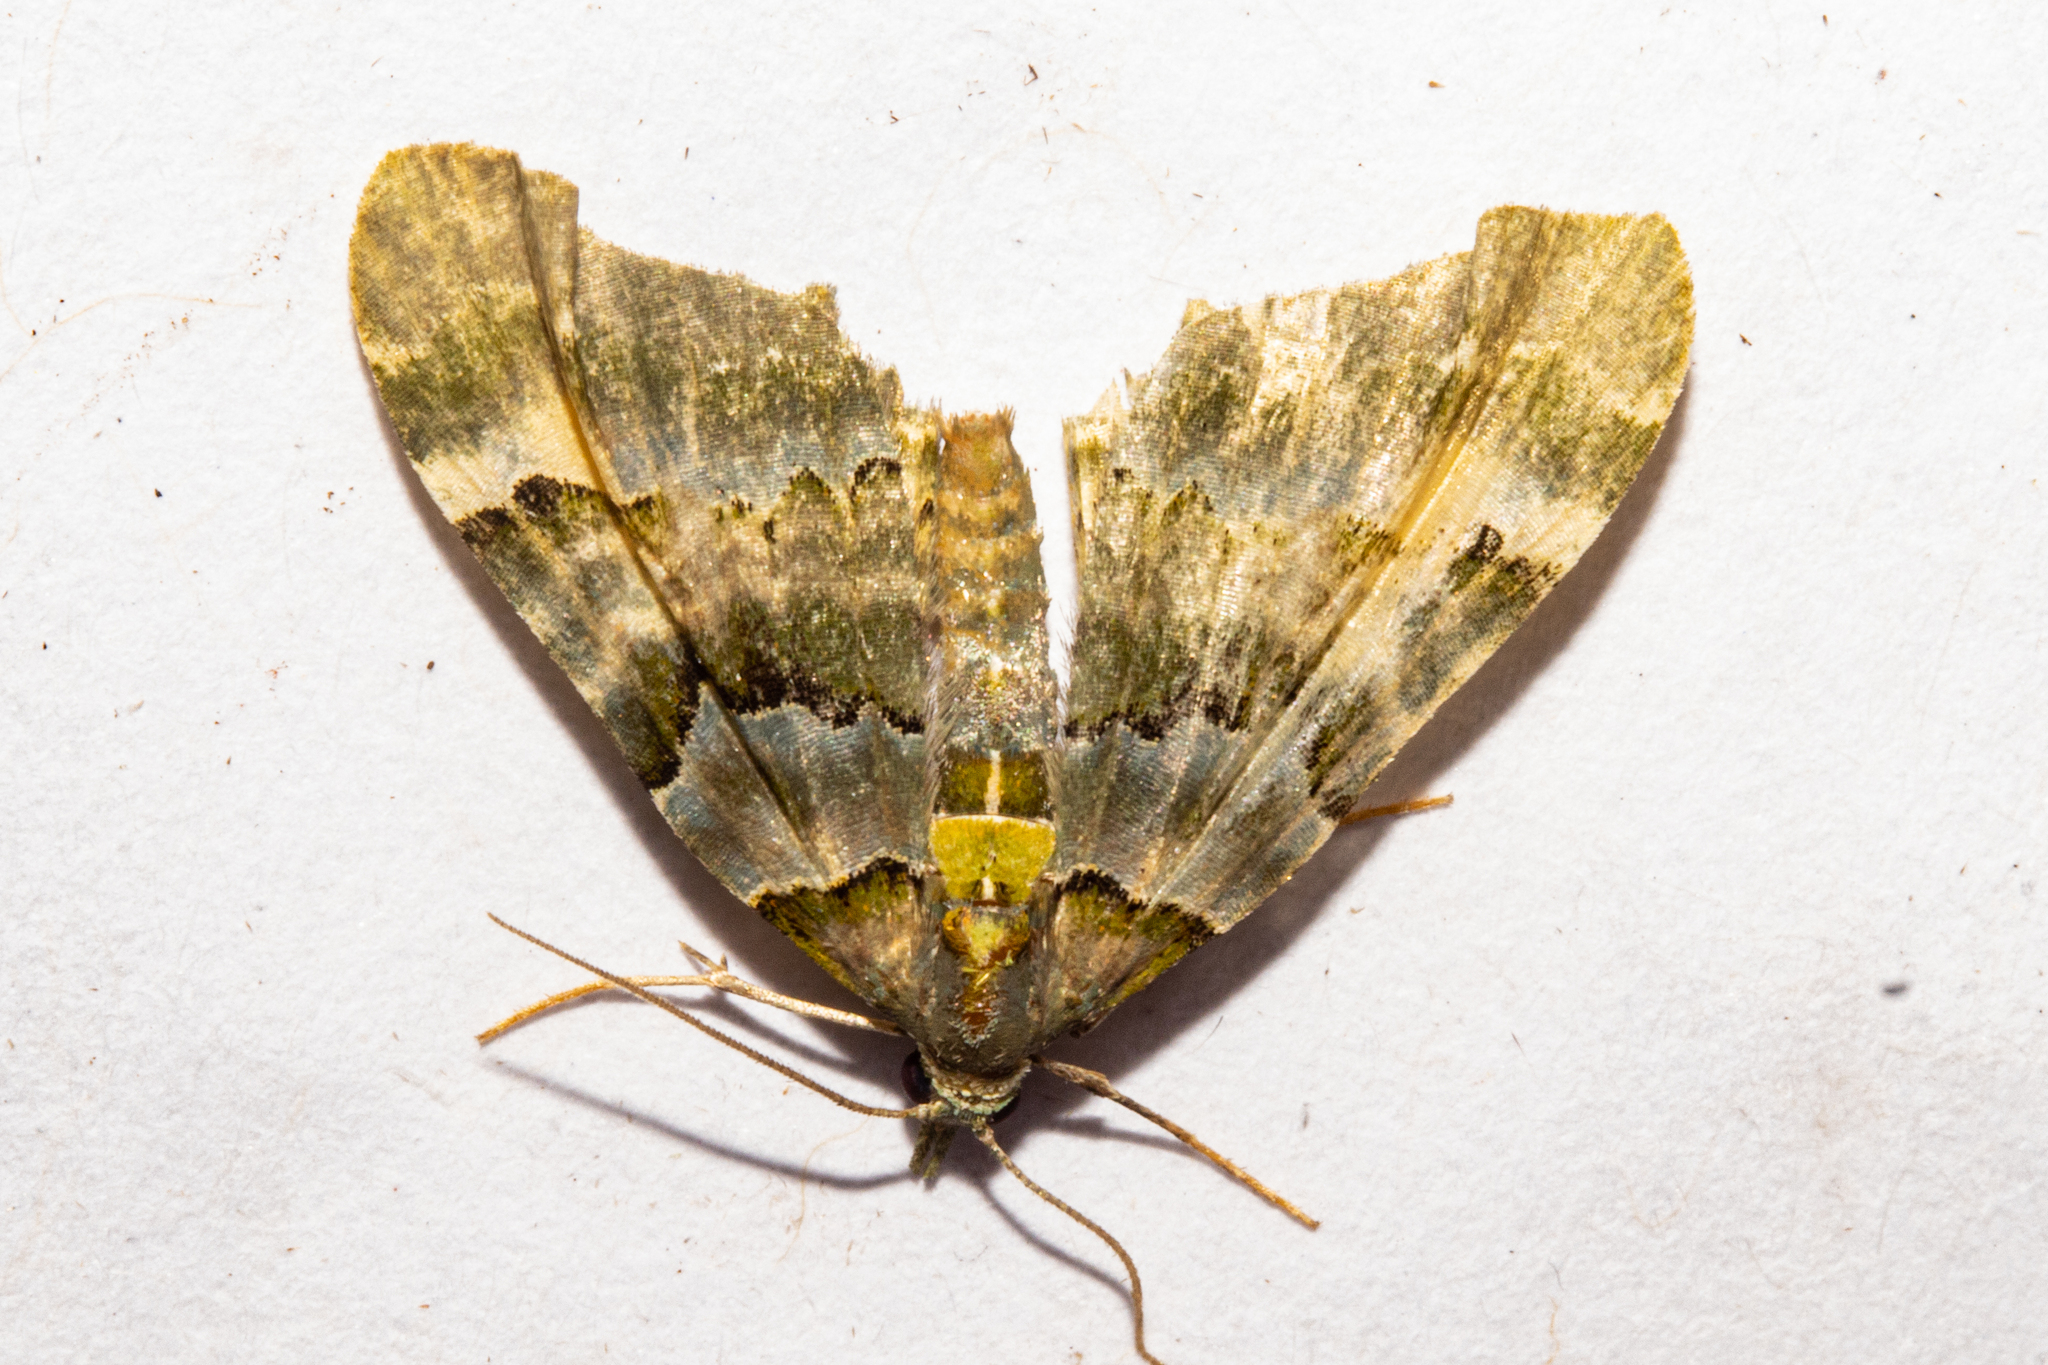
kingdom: Animalia
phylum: Arthropoda
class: Insecta
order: Lepidoptera
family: Geometridae
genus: Elvia
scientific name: Elvia glaucata
